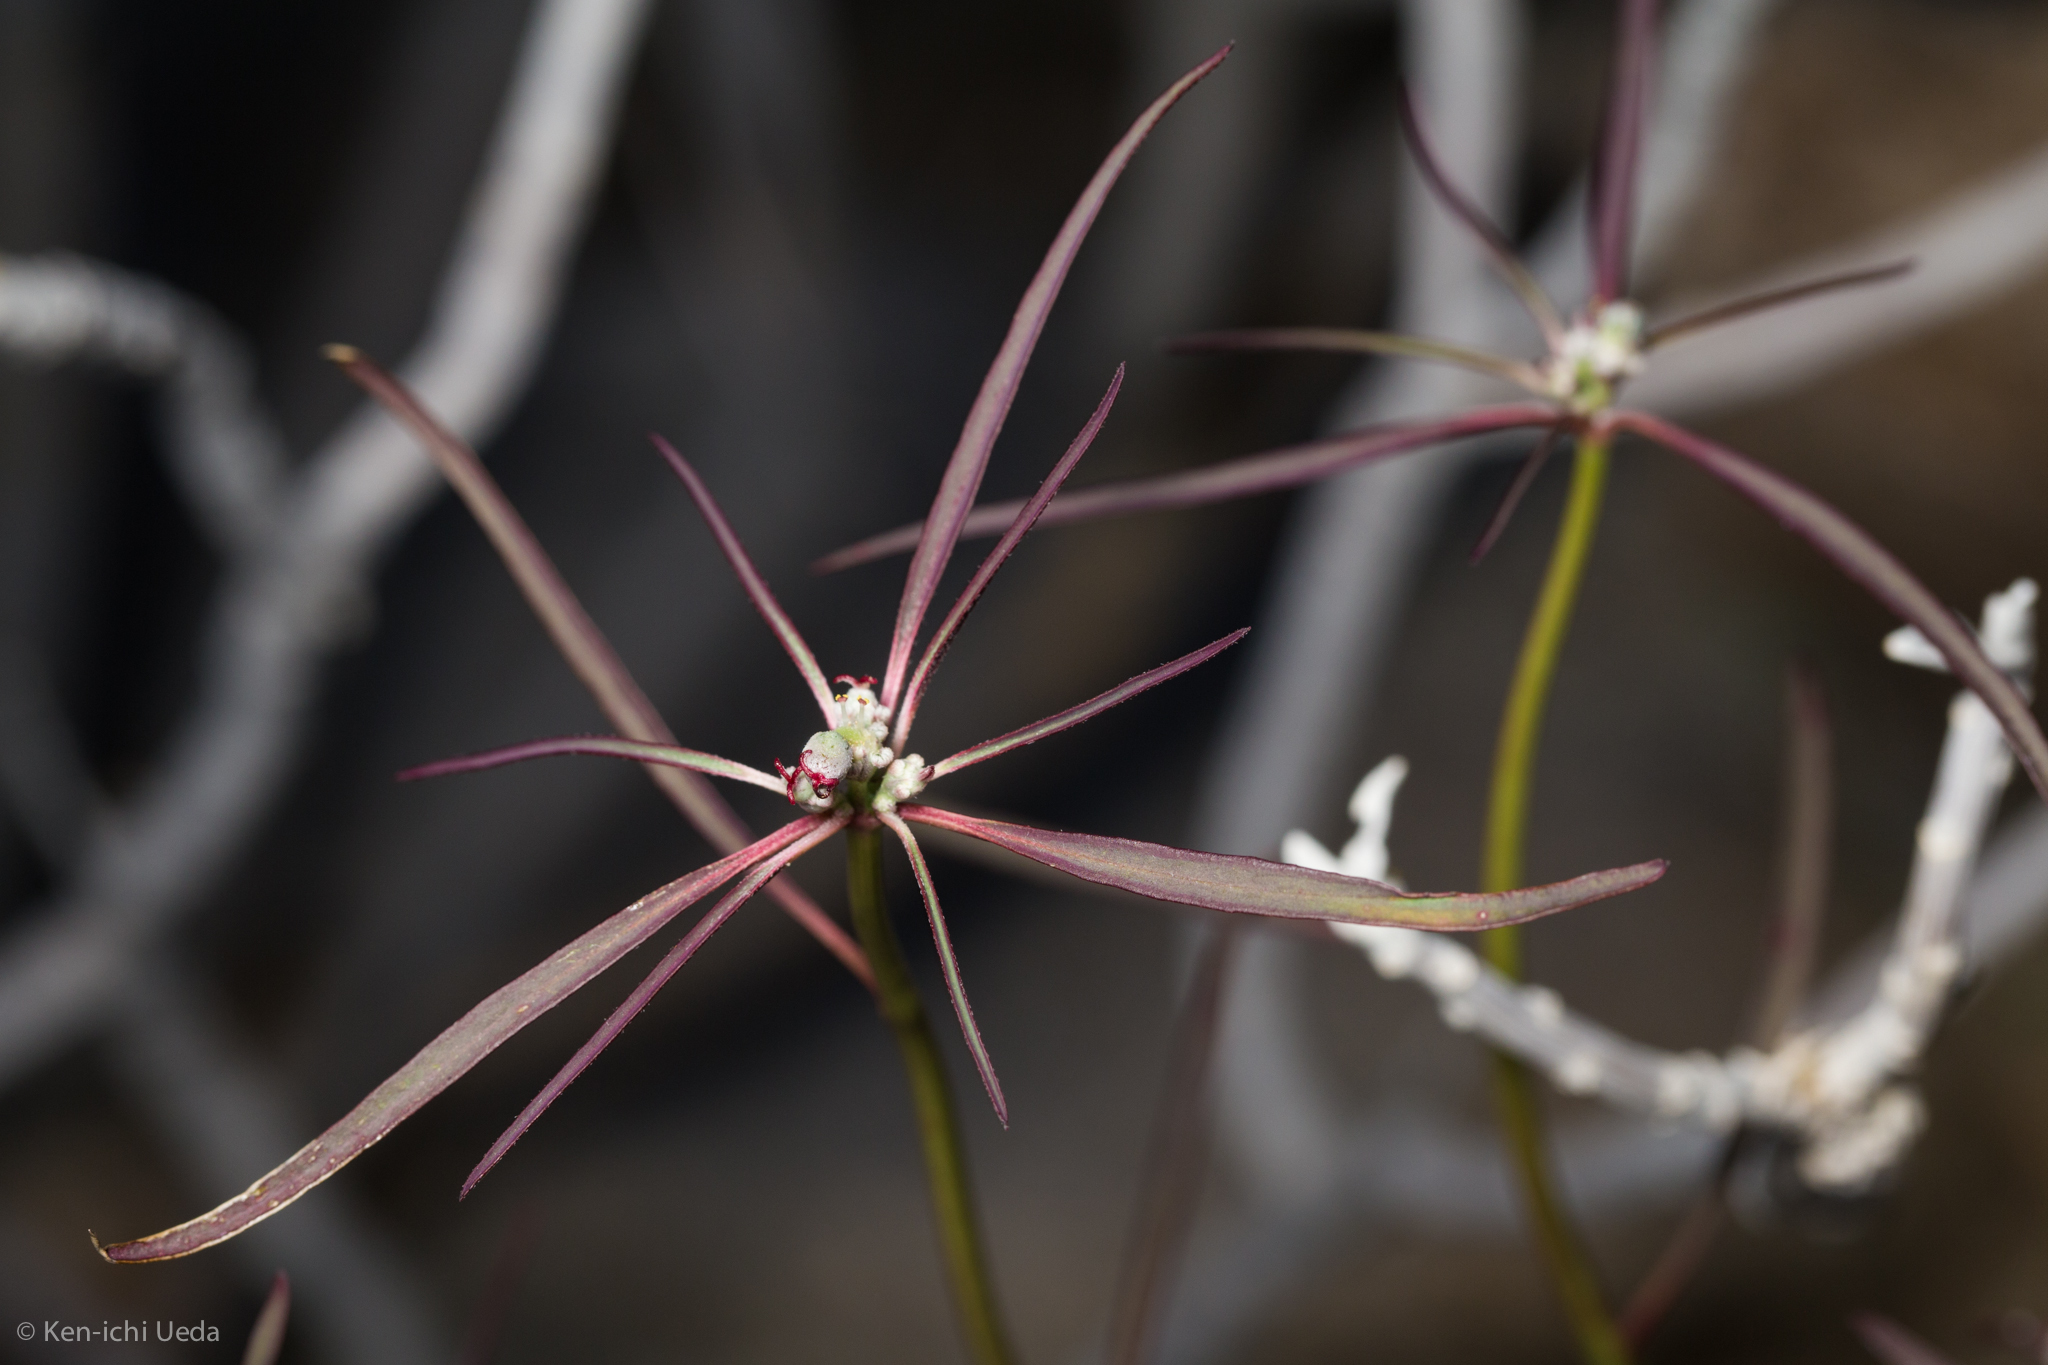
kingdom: Plantae
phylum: Tracheophyta
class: Magnoliopsida
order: Malpighiales
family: Euphorbiaceae
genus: Euphorbia
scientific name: Euphorbia eriantha
